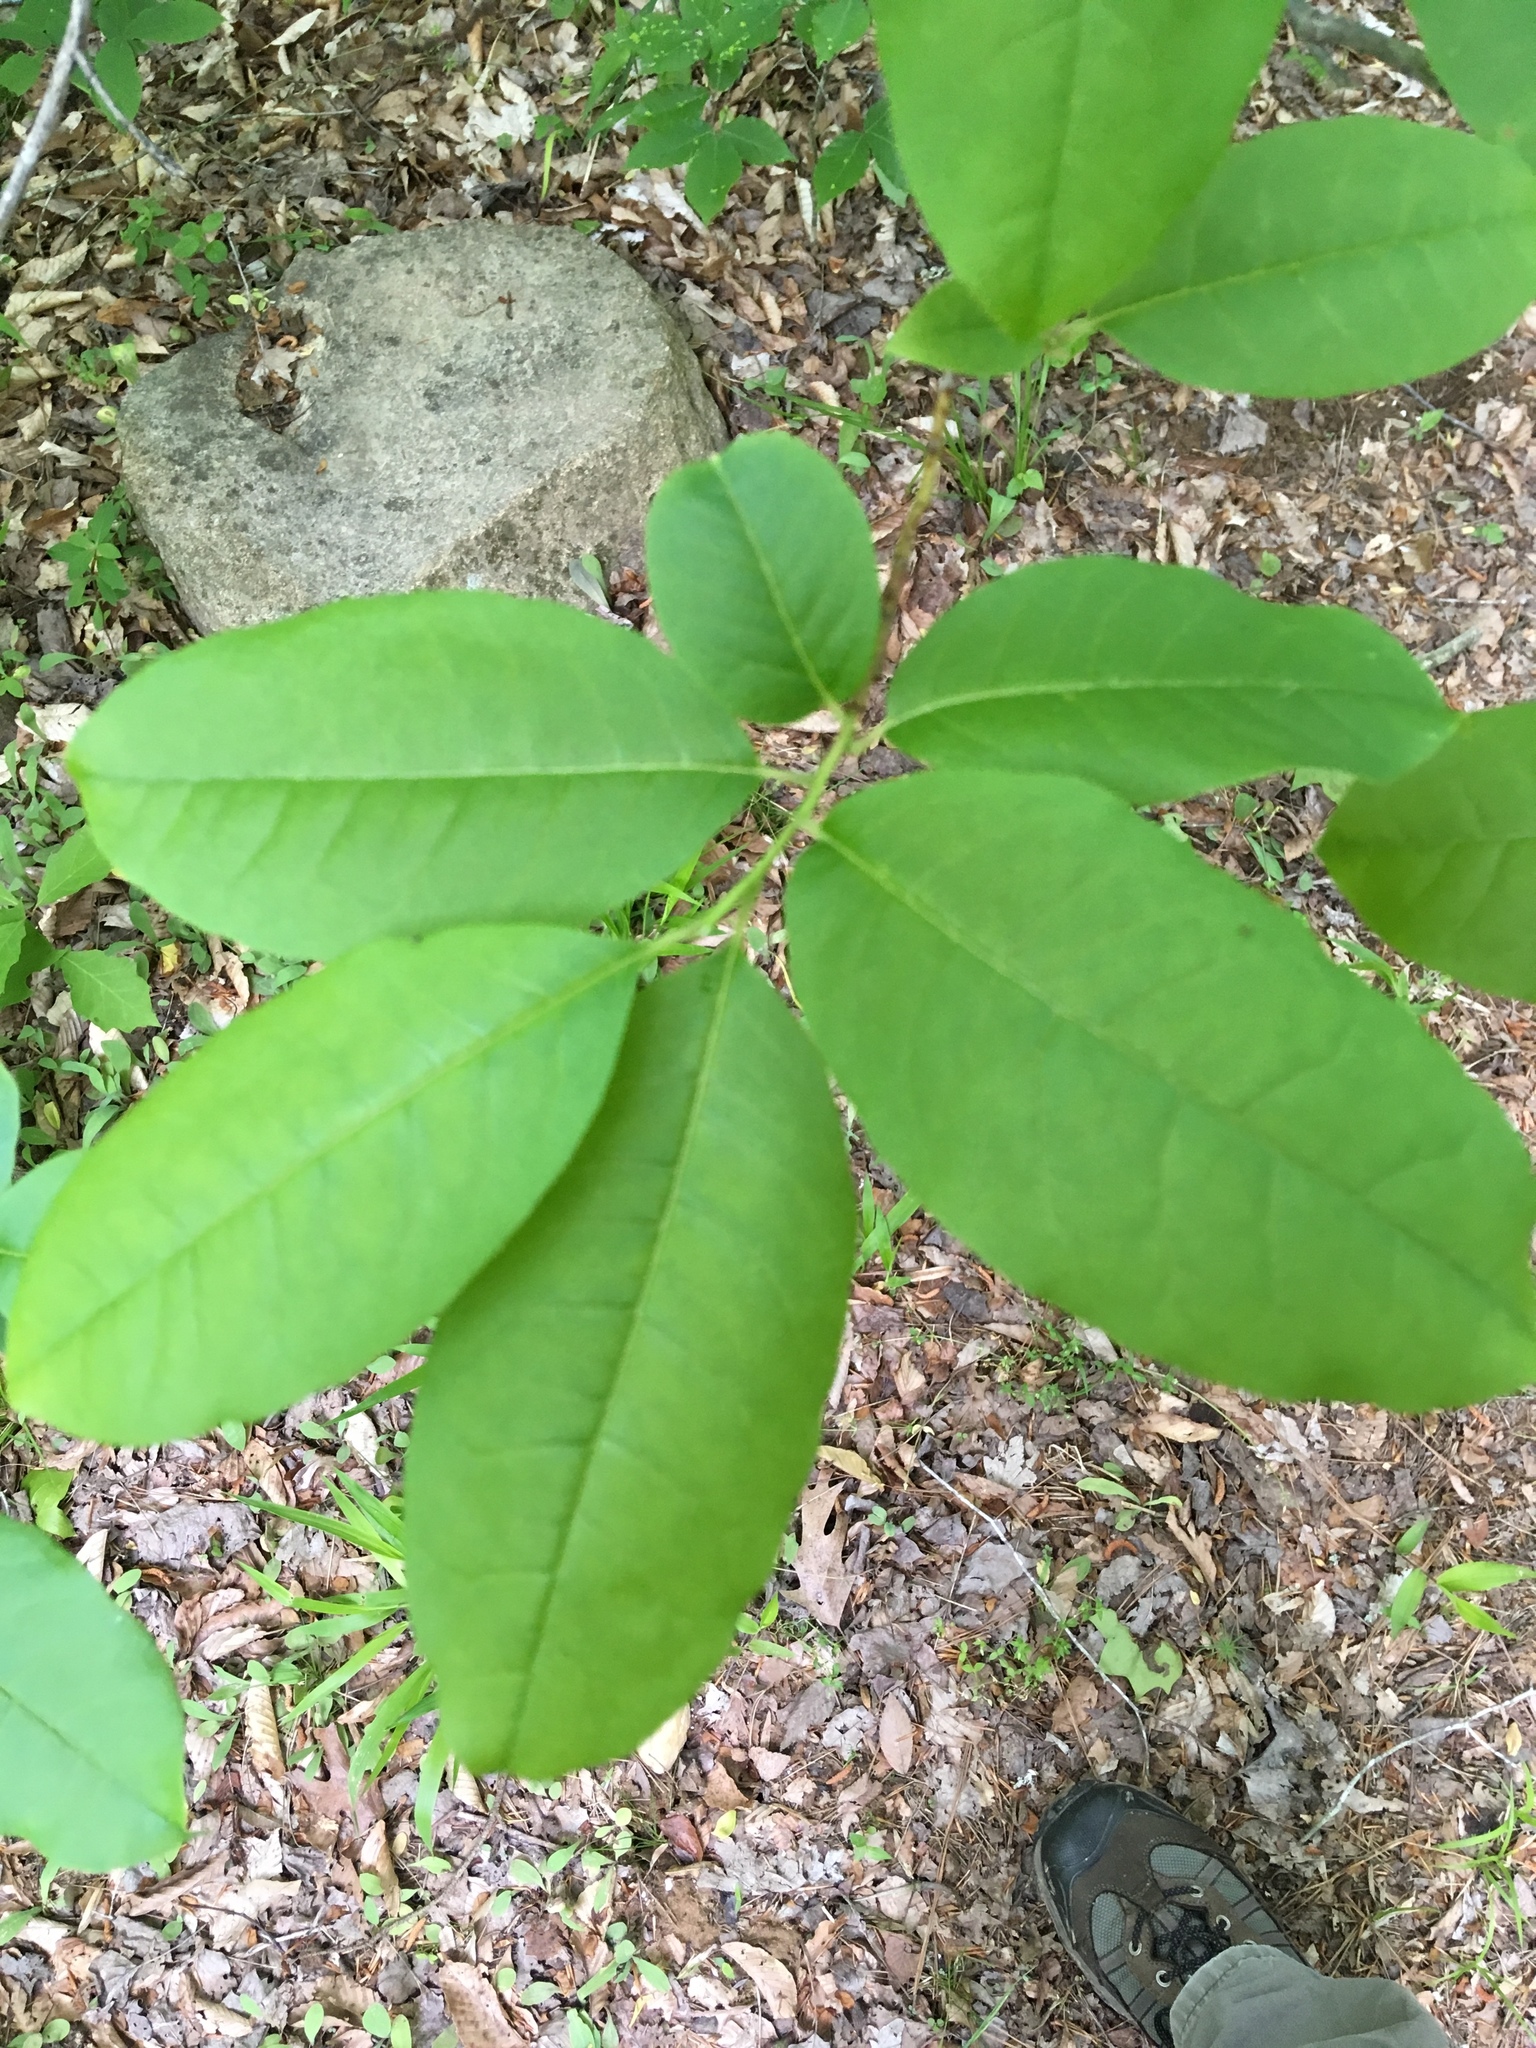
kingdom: Plantae
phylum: Tracheophyta
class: Magnoliopsida
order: Ericales
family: Ericaceae
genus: Oxydendrum
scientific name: Oxydendrum arboreum
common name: Sourwood
